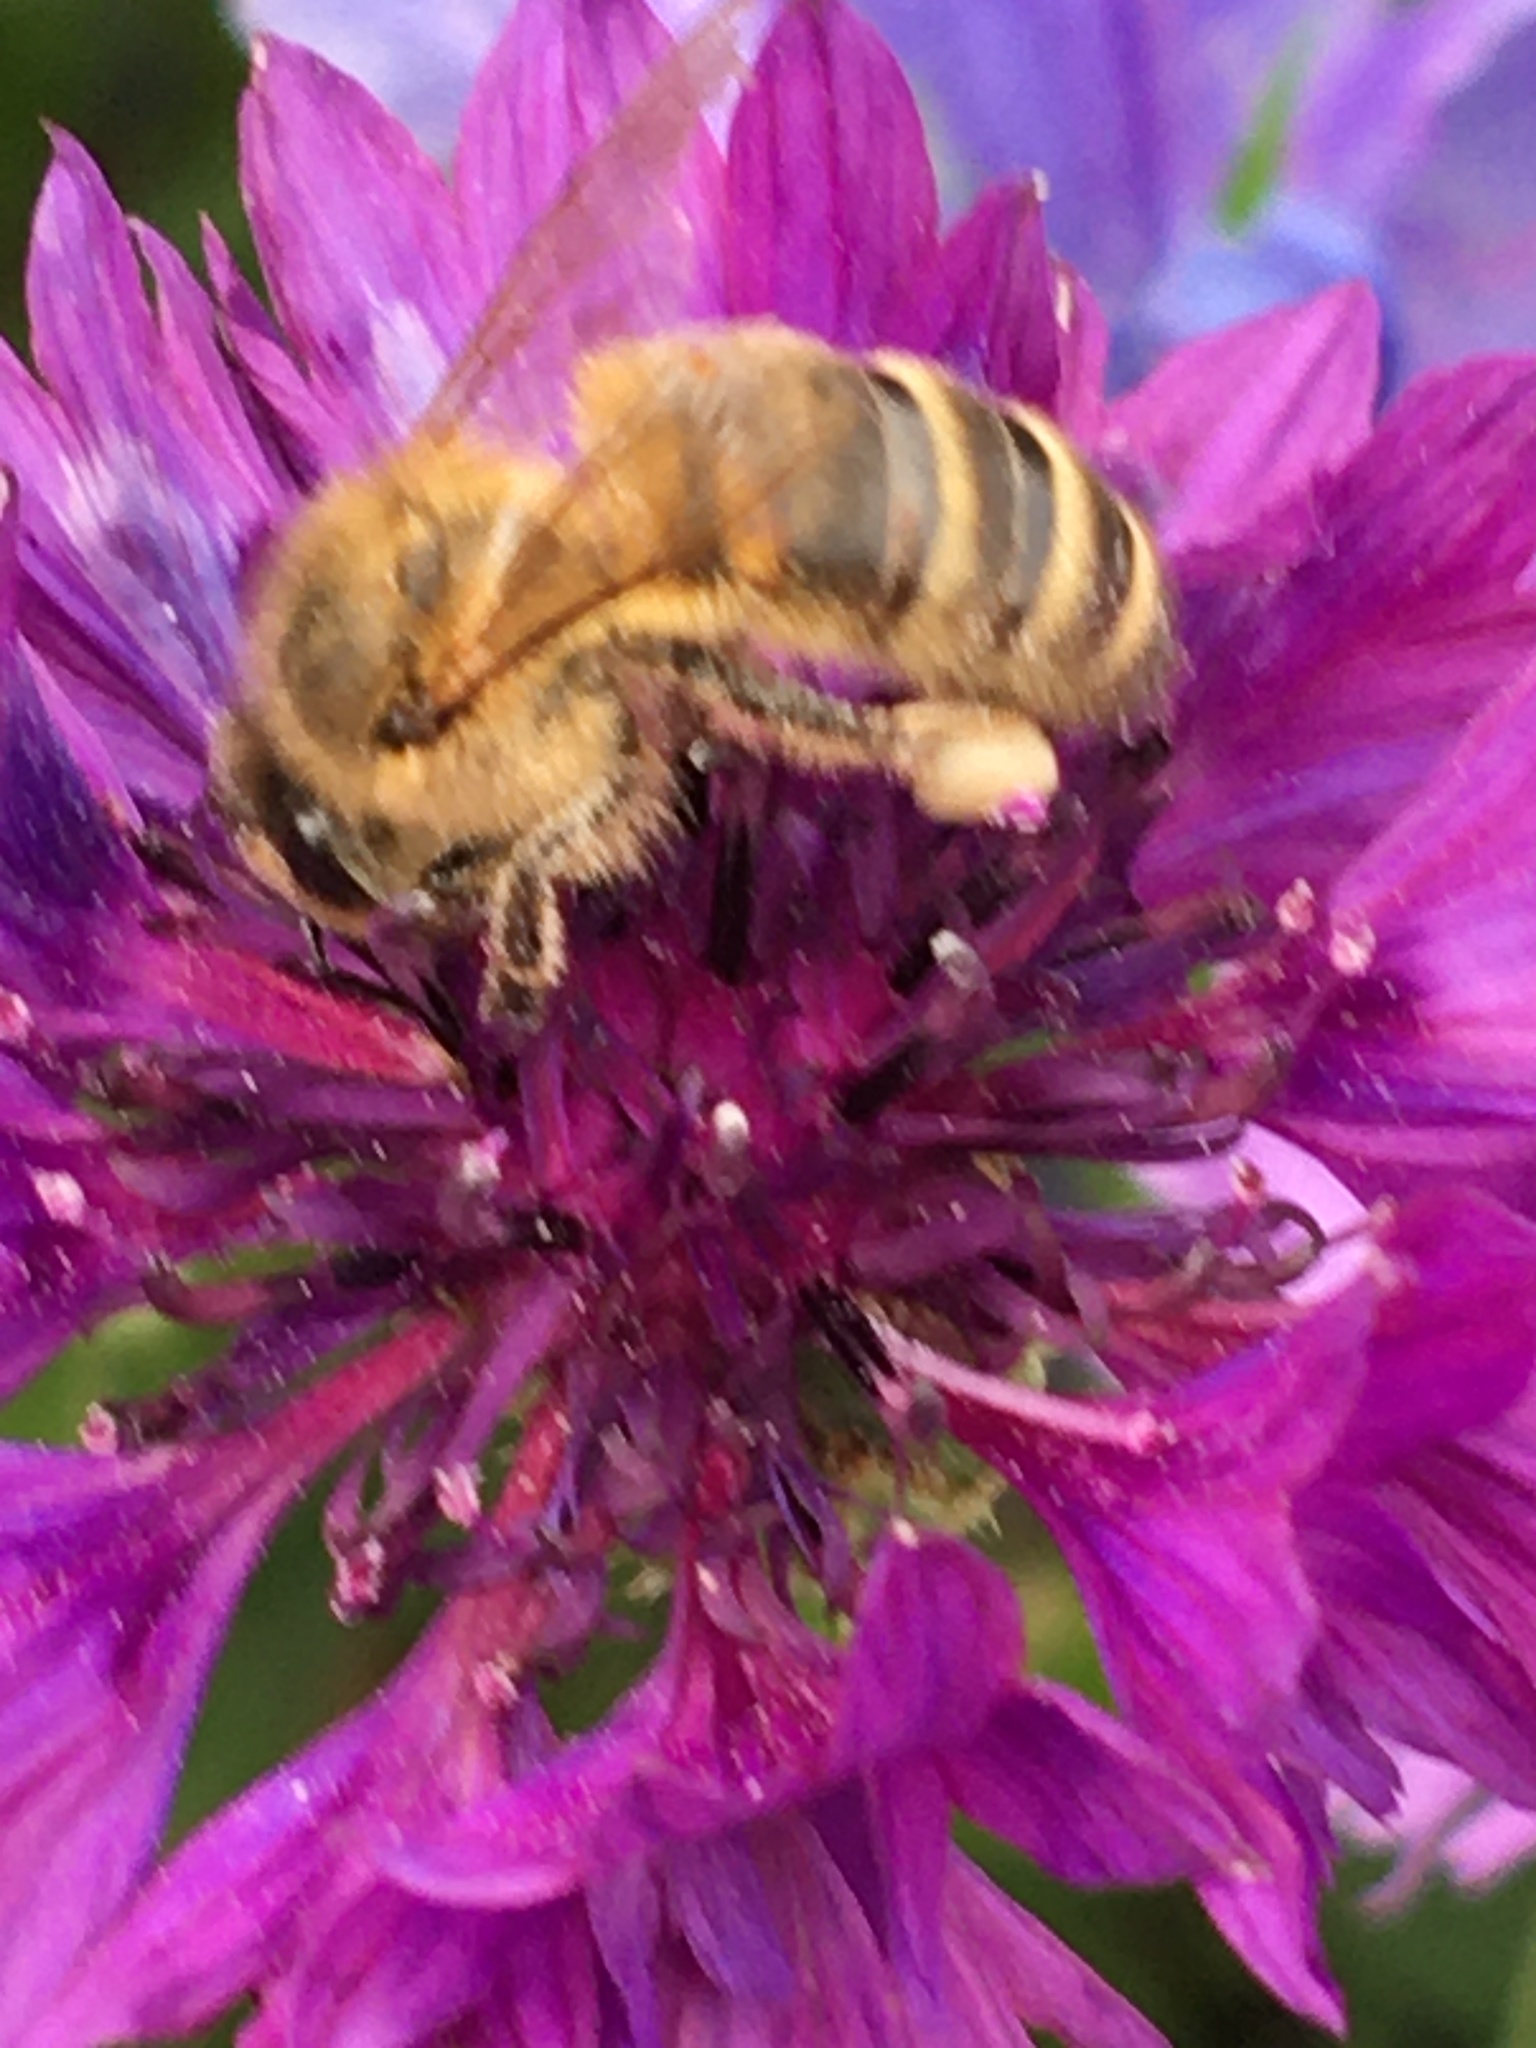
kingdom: Animalia
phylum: Arthropoda
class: Insecta
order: Hymenoptera
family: Apidae
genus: Apis
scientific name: Apis mellifera
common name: Honey bee
